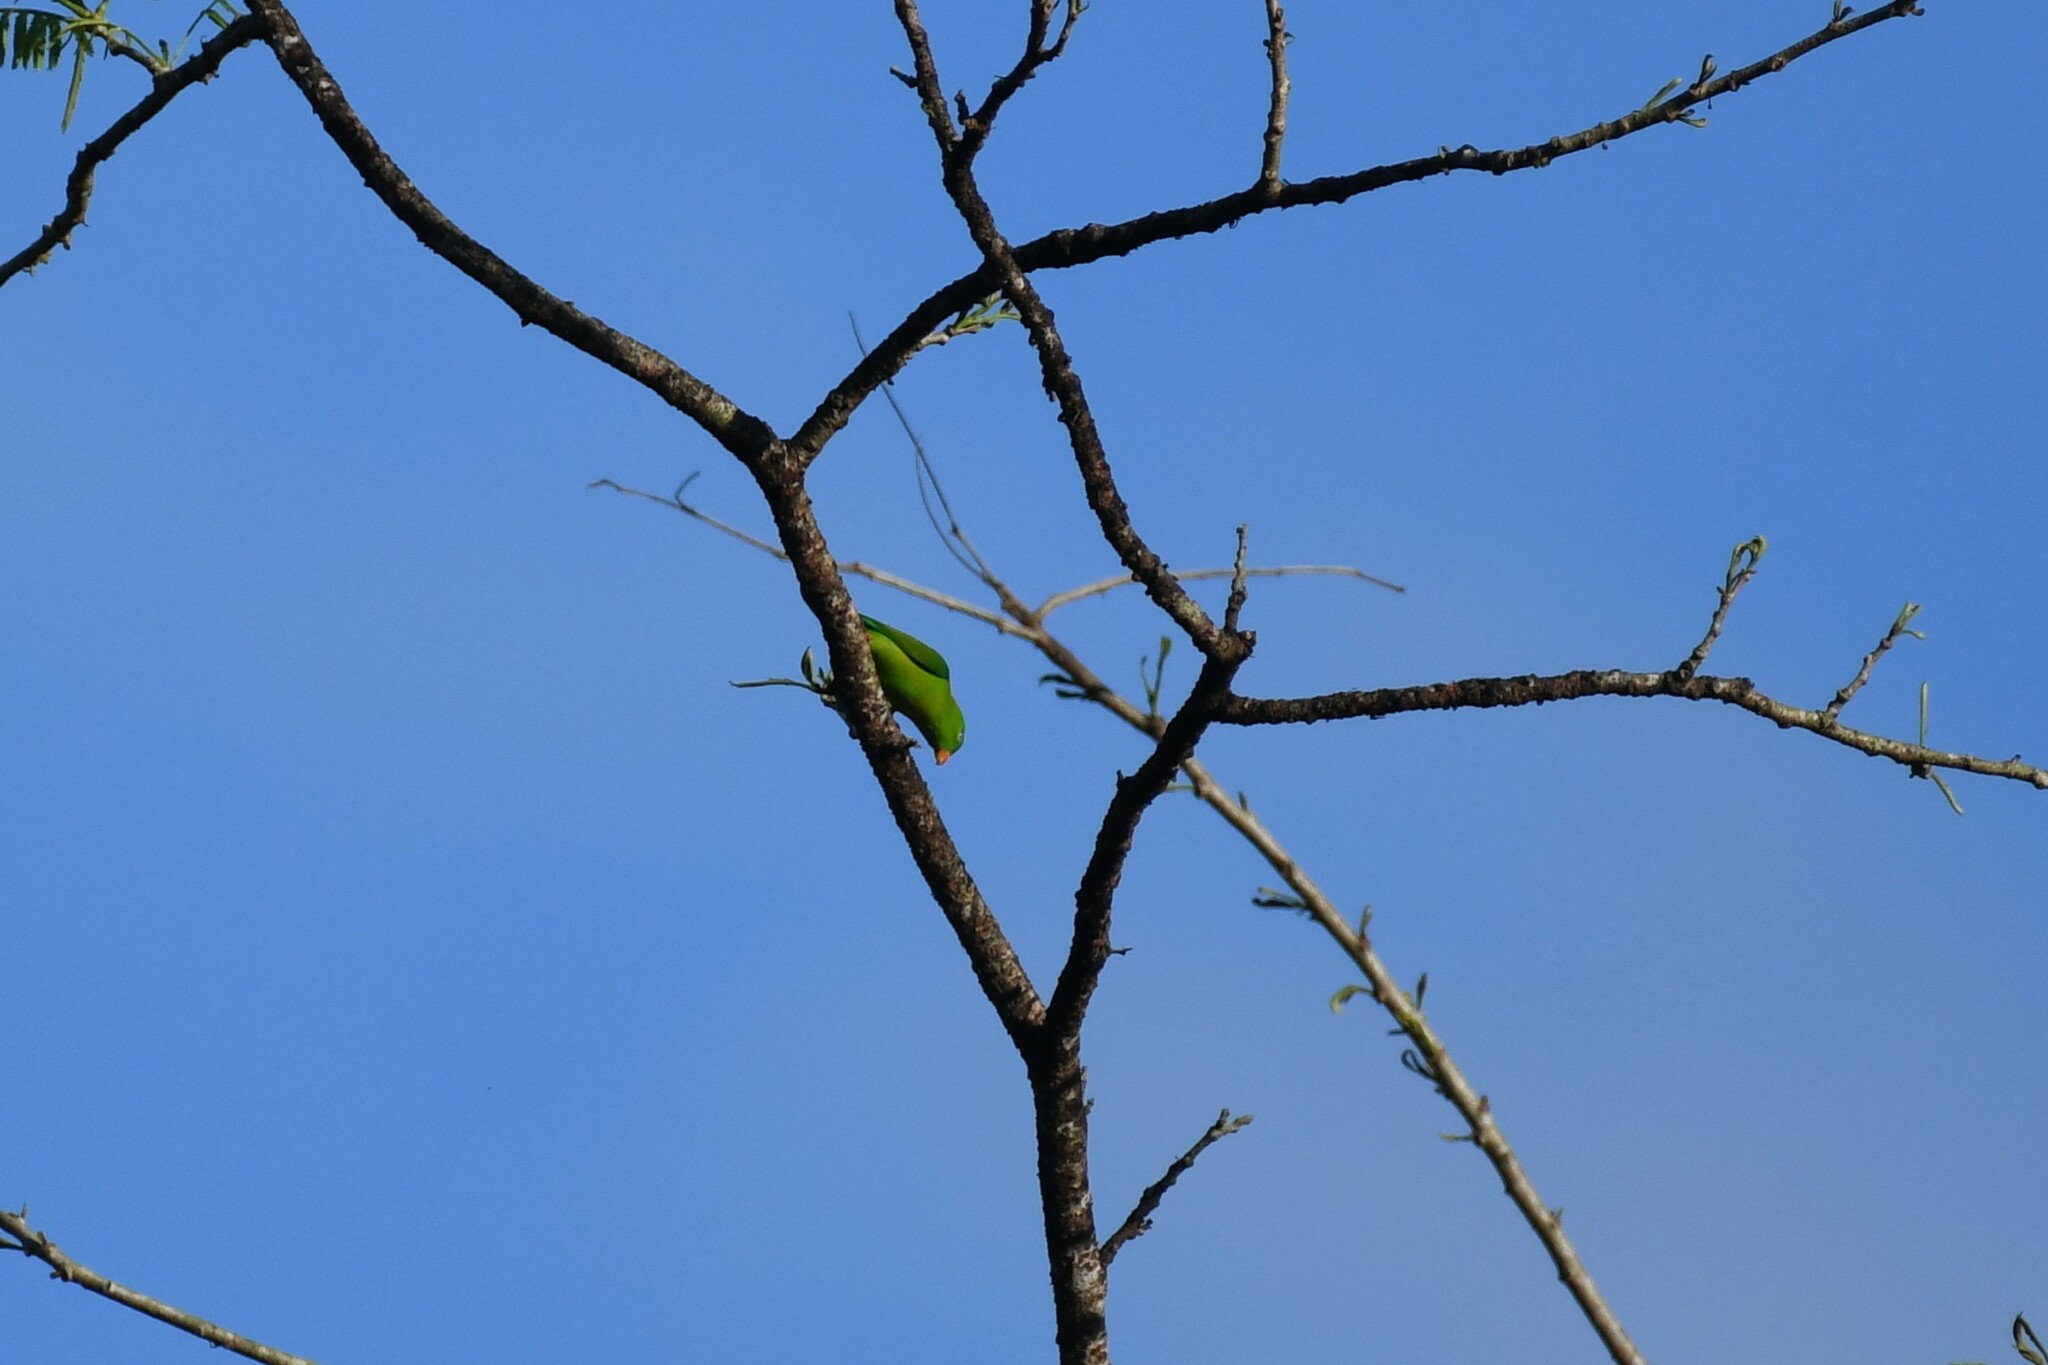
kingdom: Animalia
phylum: Chordata
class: Aves
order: Psittaciformes
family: Psittacidae
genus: Loriculus
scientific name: Loriculus vernalis
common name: Vernal hanging parrot
